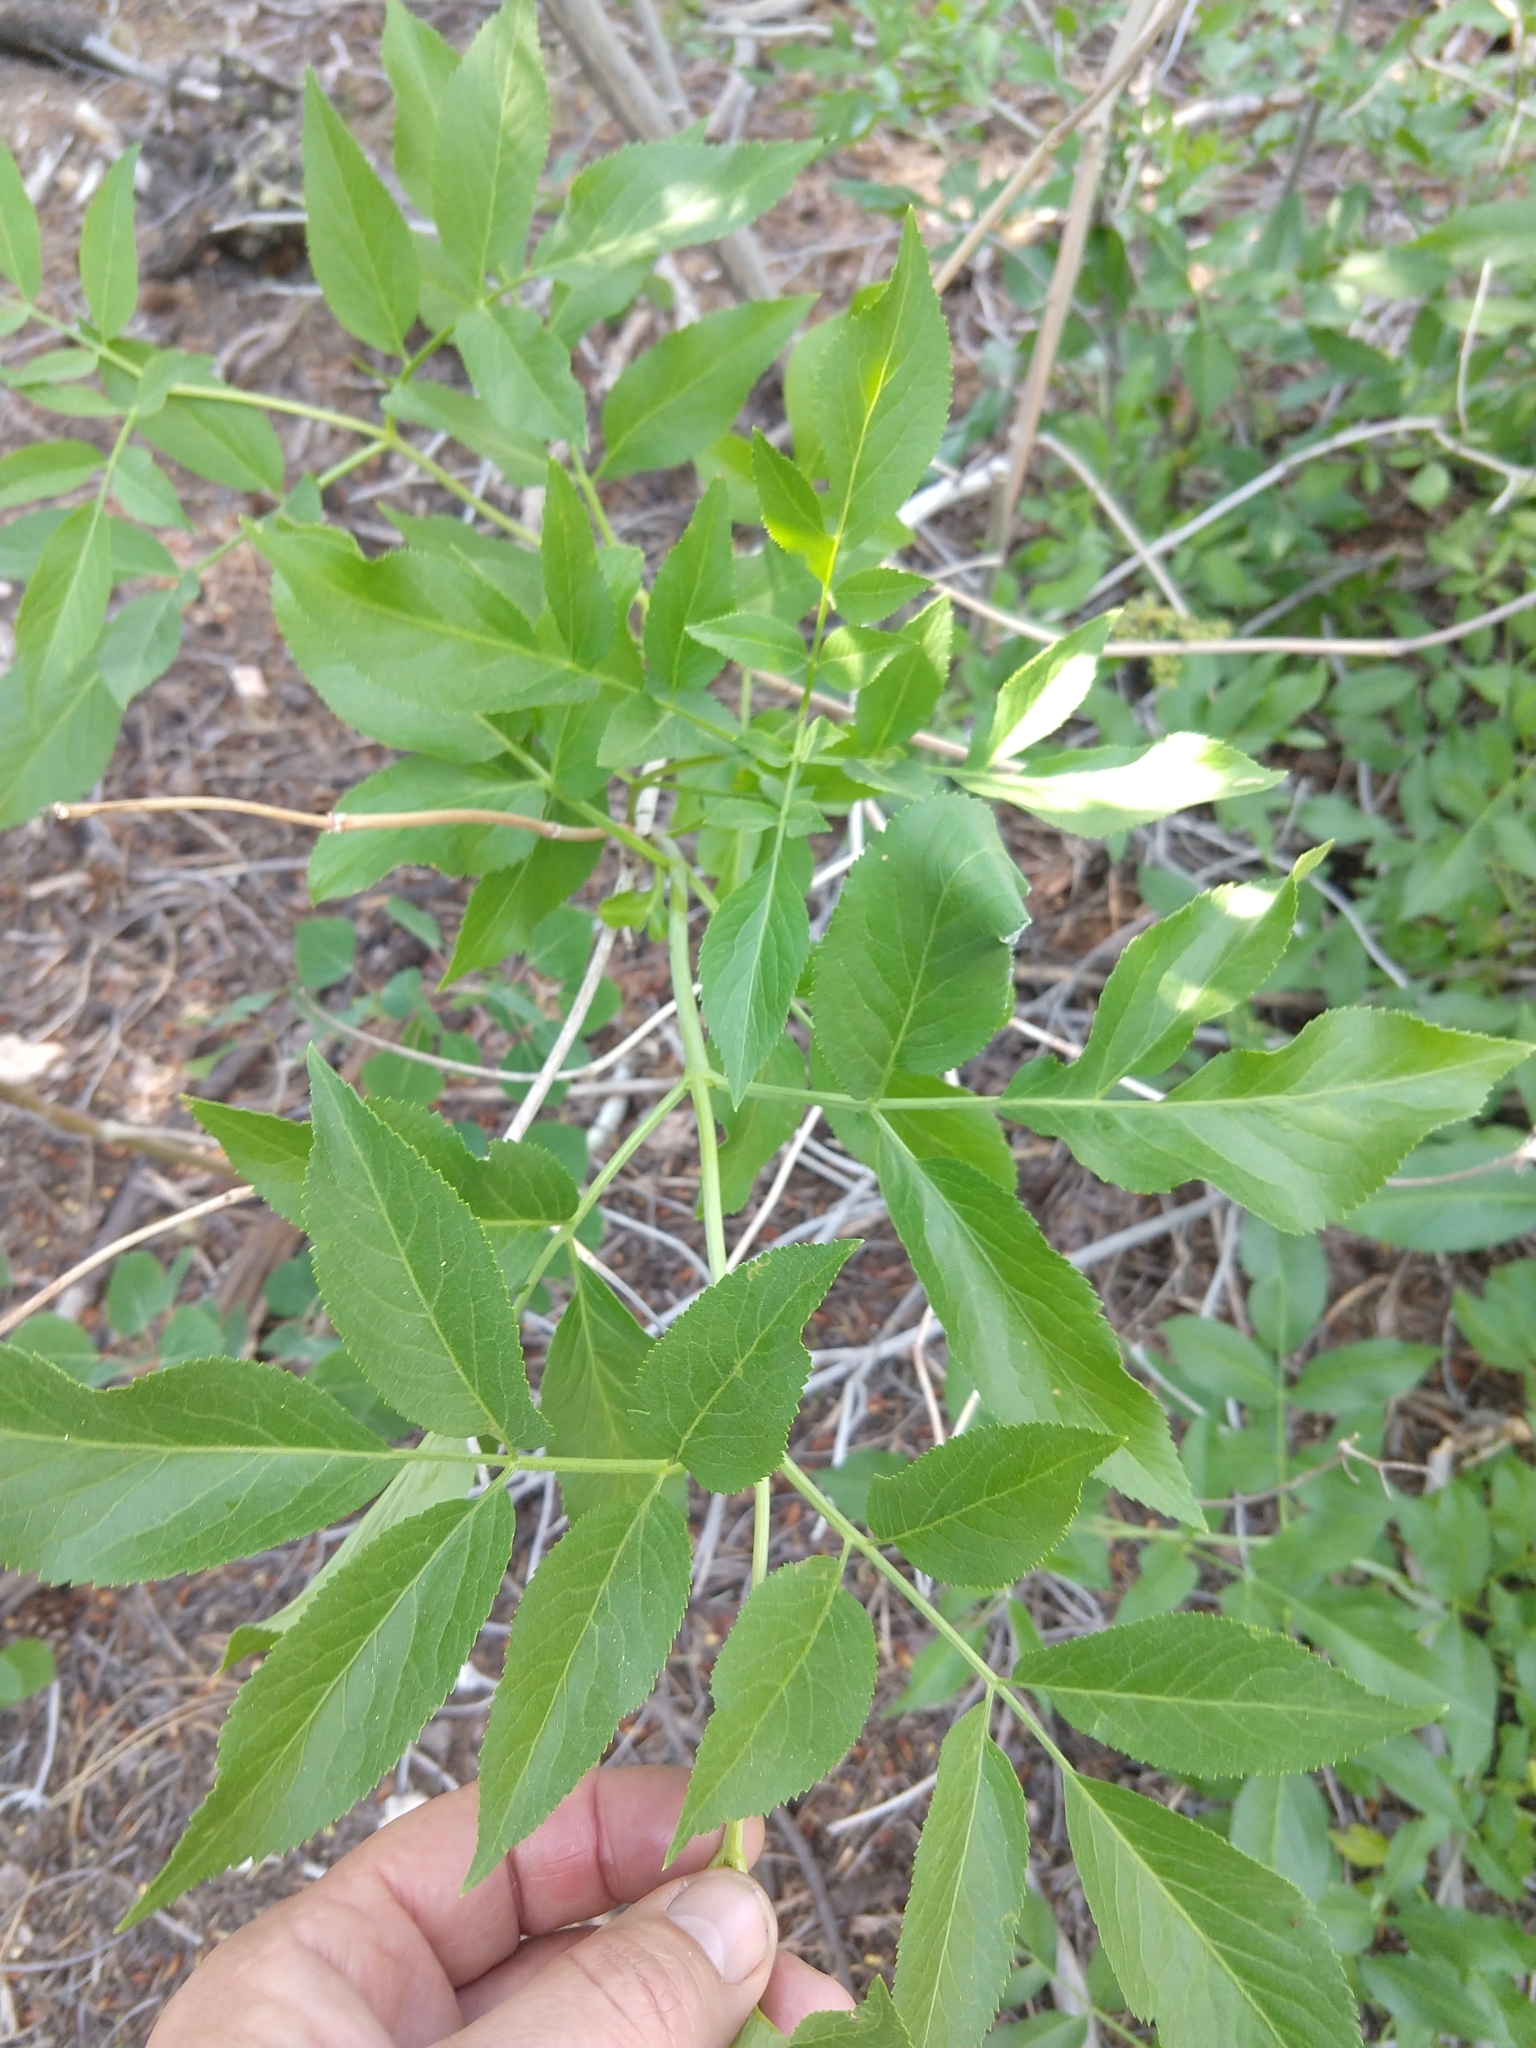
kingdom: Plantae
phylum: Tracheophyta
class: Magnoliopsida
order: Dipsacales
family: Viburnaceae
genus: Sambucus
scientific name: Sambucus cerulea
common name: Blue elder
